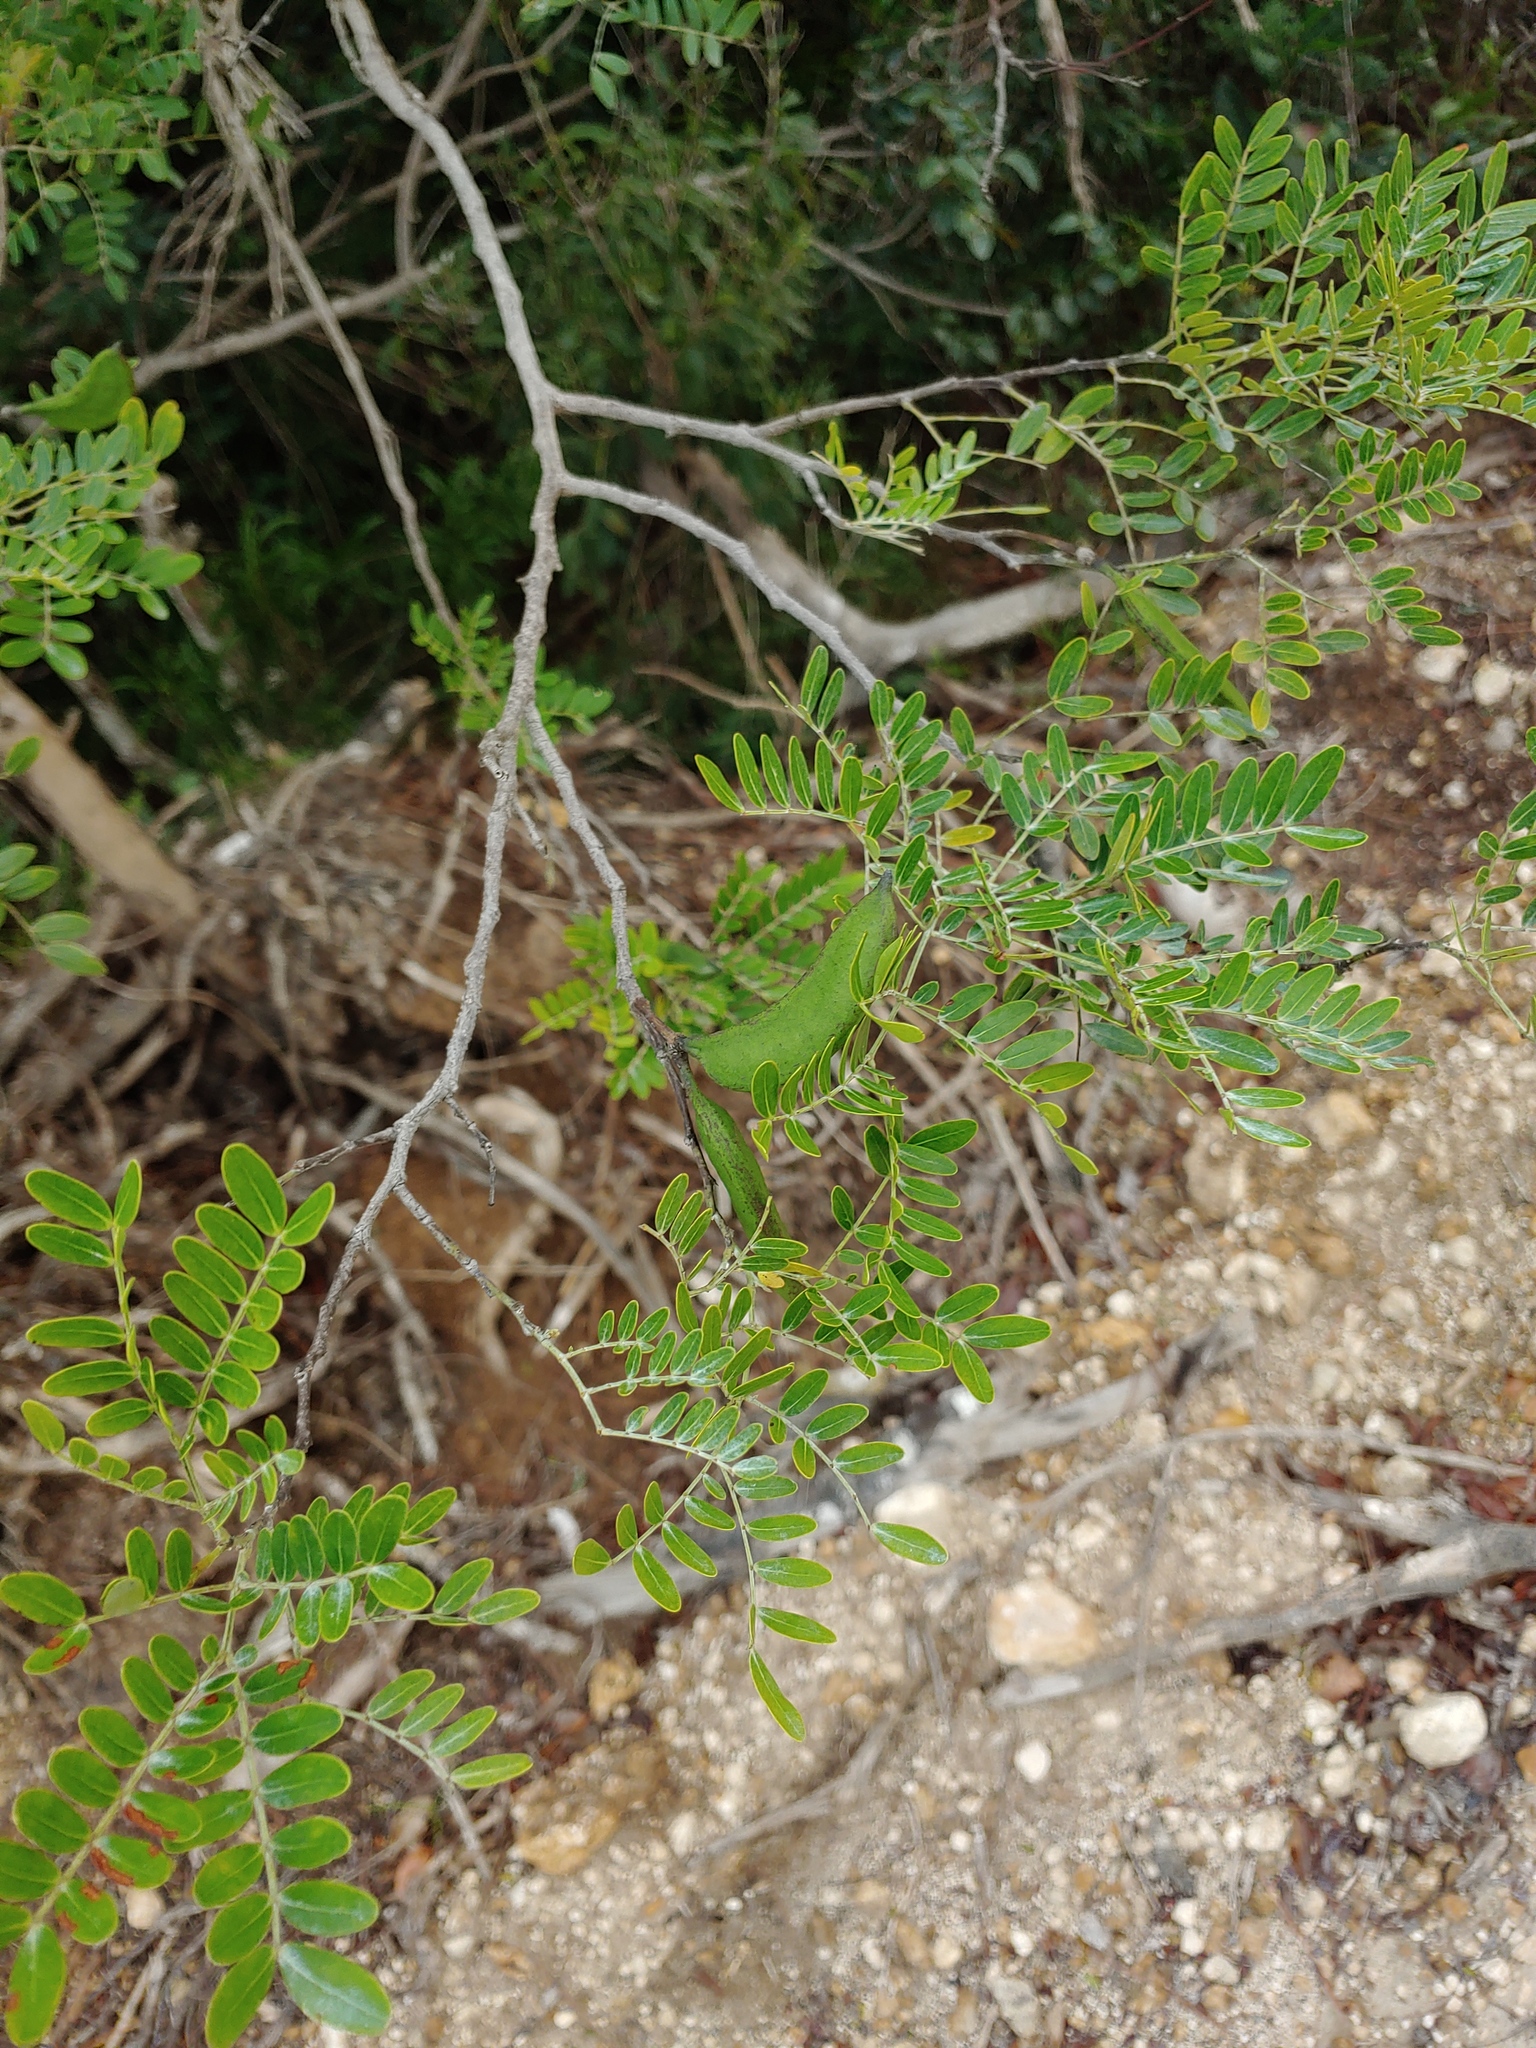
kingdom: Plantae
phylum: Tracheophyta
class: Magnoliopsida
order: Fabales
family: Fabaceae
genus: Vachellia
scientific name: Vachellia choriophylla
